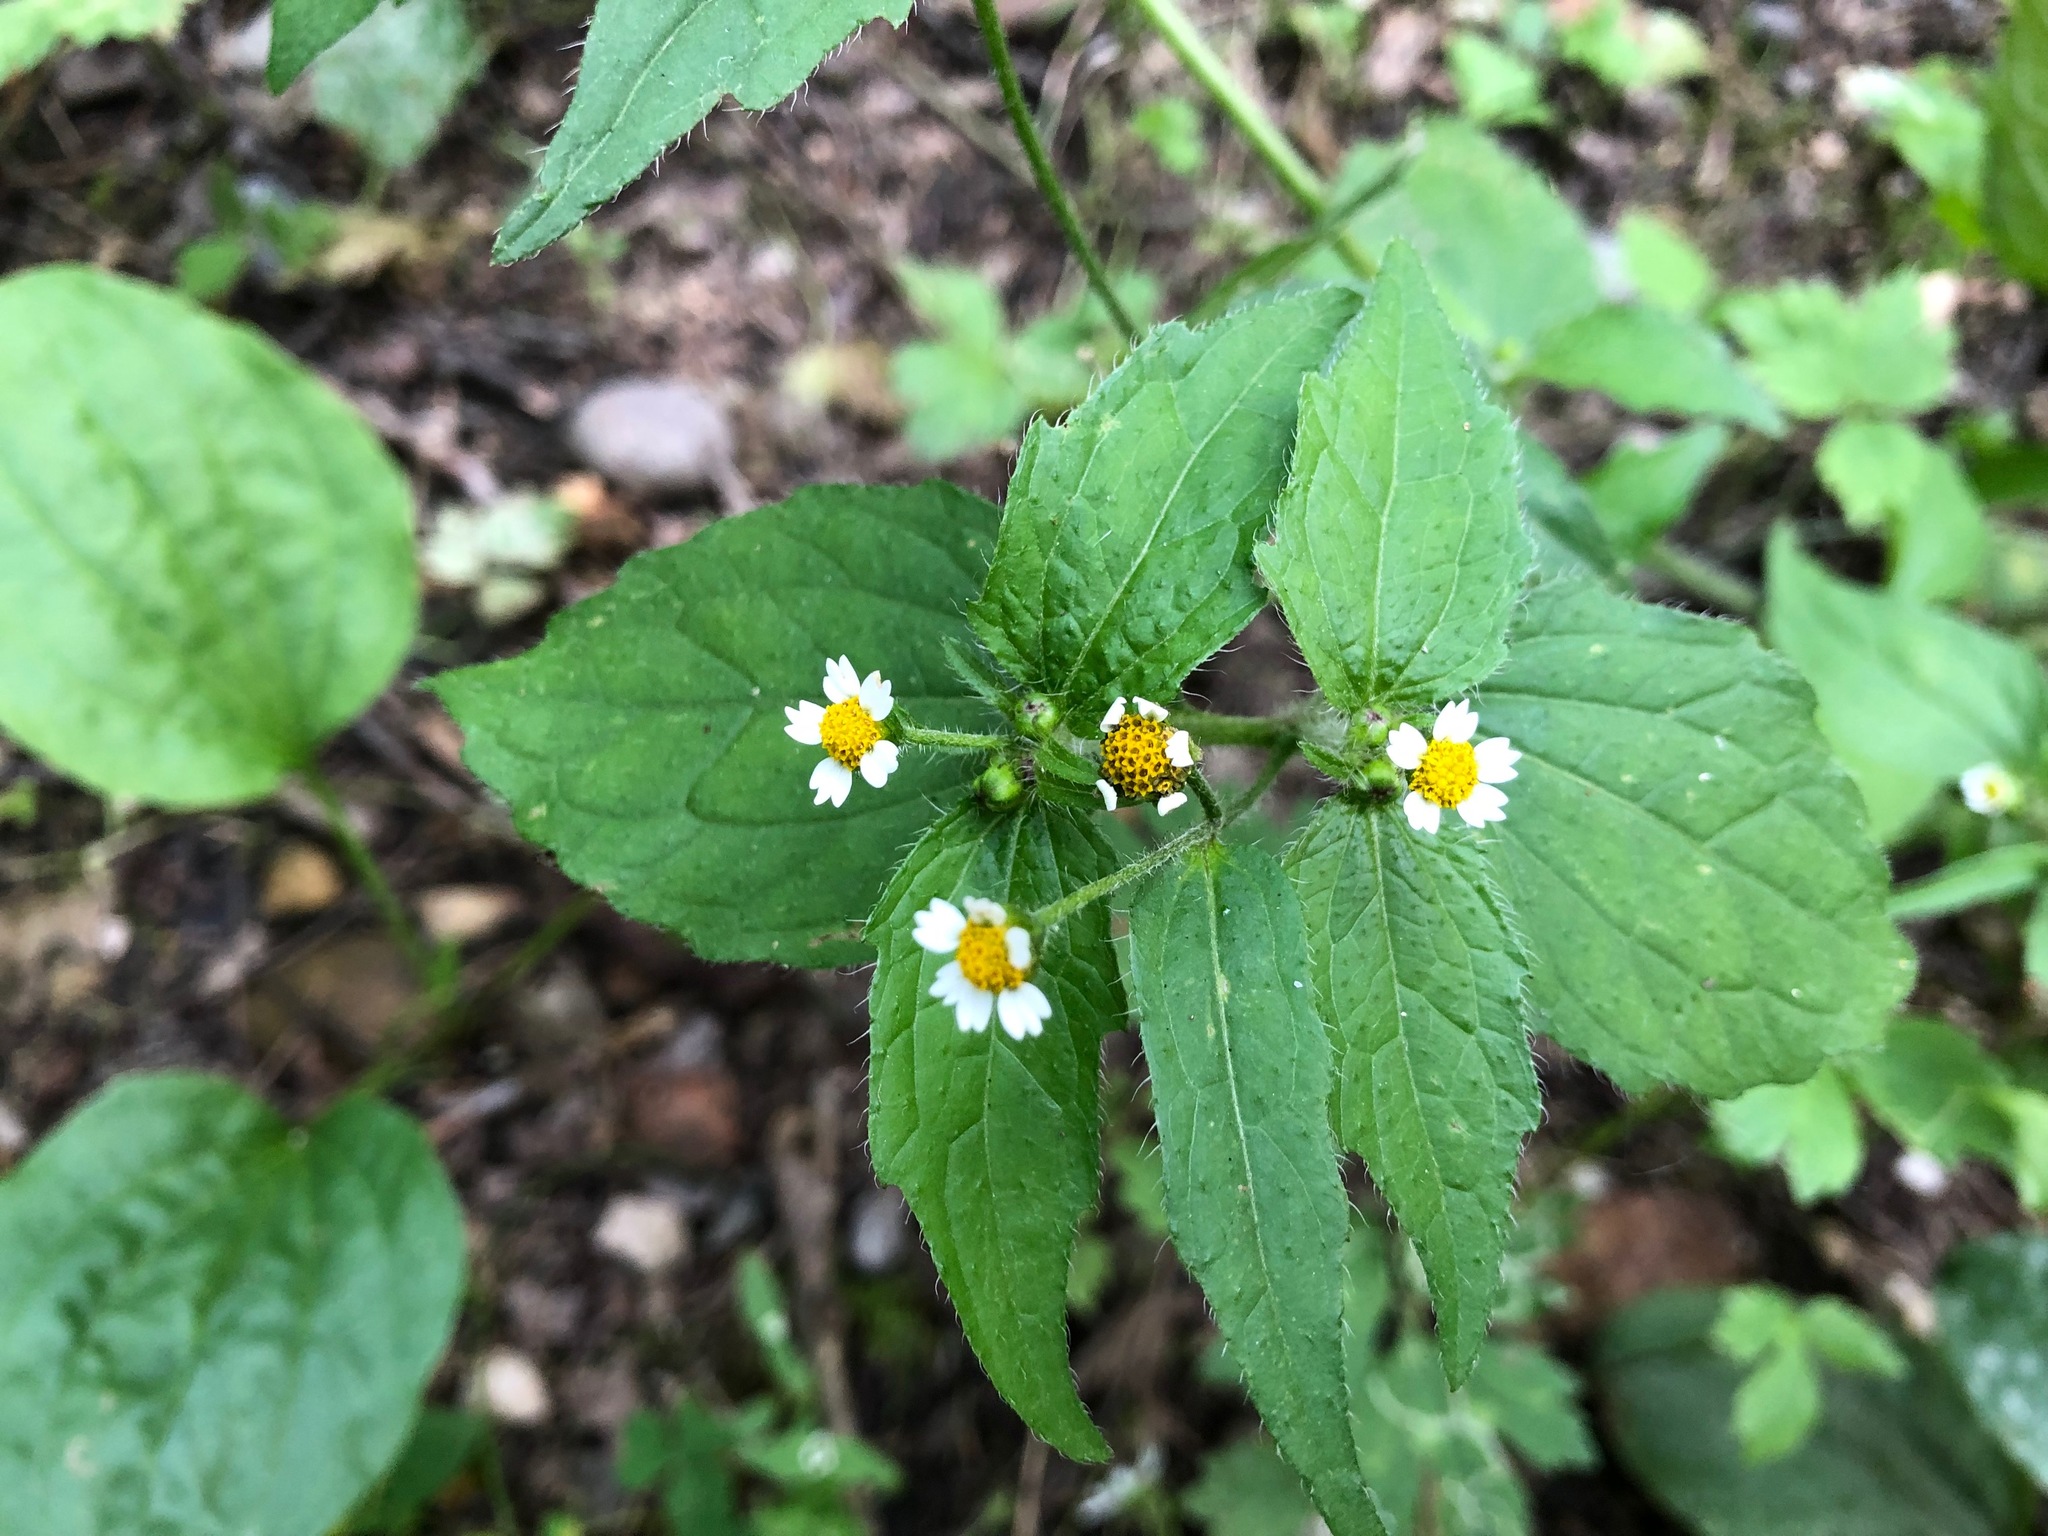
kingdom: Plantae
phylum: Tracheophyta
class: Magnoliopsida
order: Asterales
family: Asteraceae
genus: Galinsoga
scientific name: Galinsoga quadriradiata
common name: Shaggy soldier
